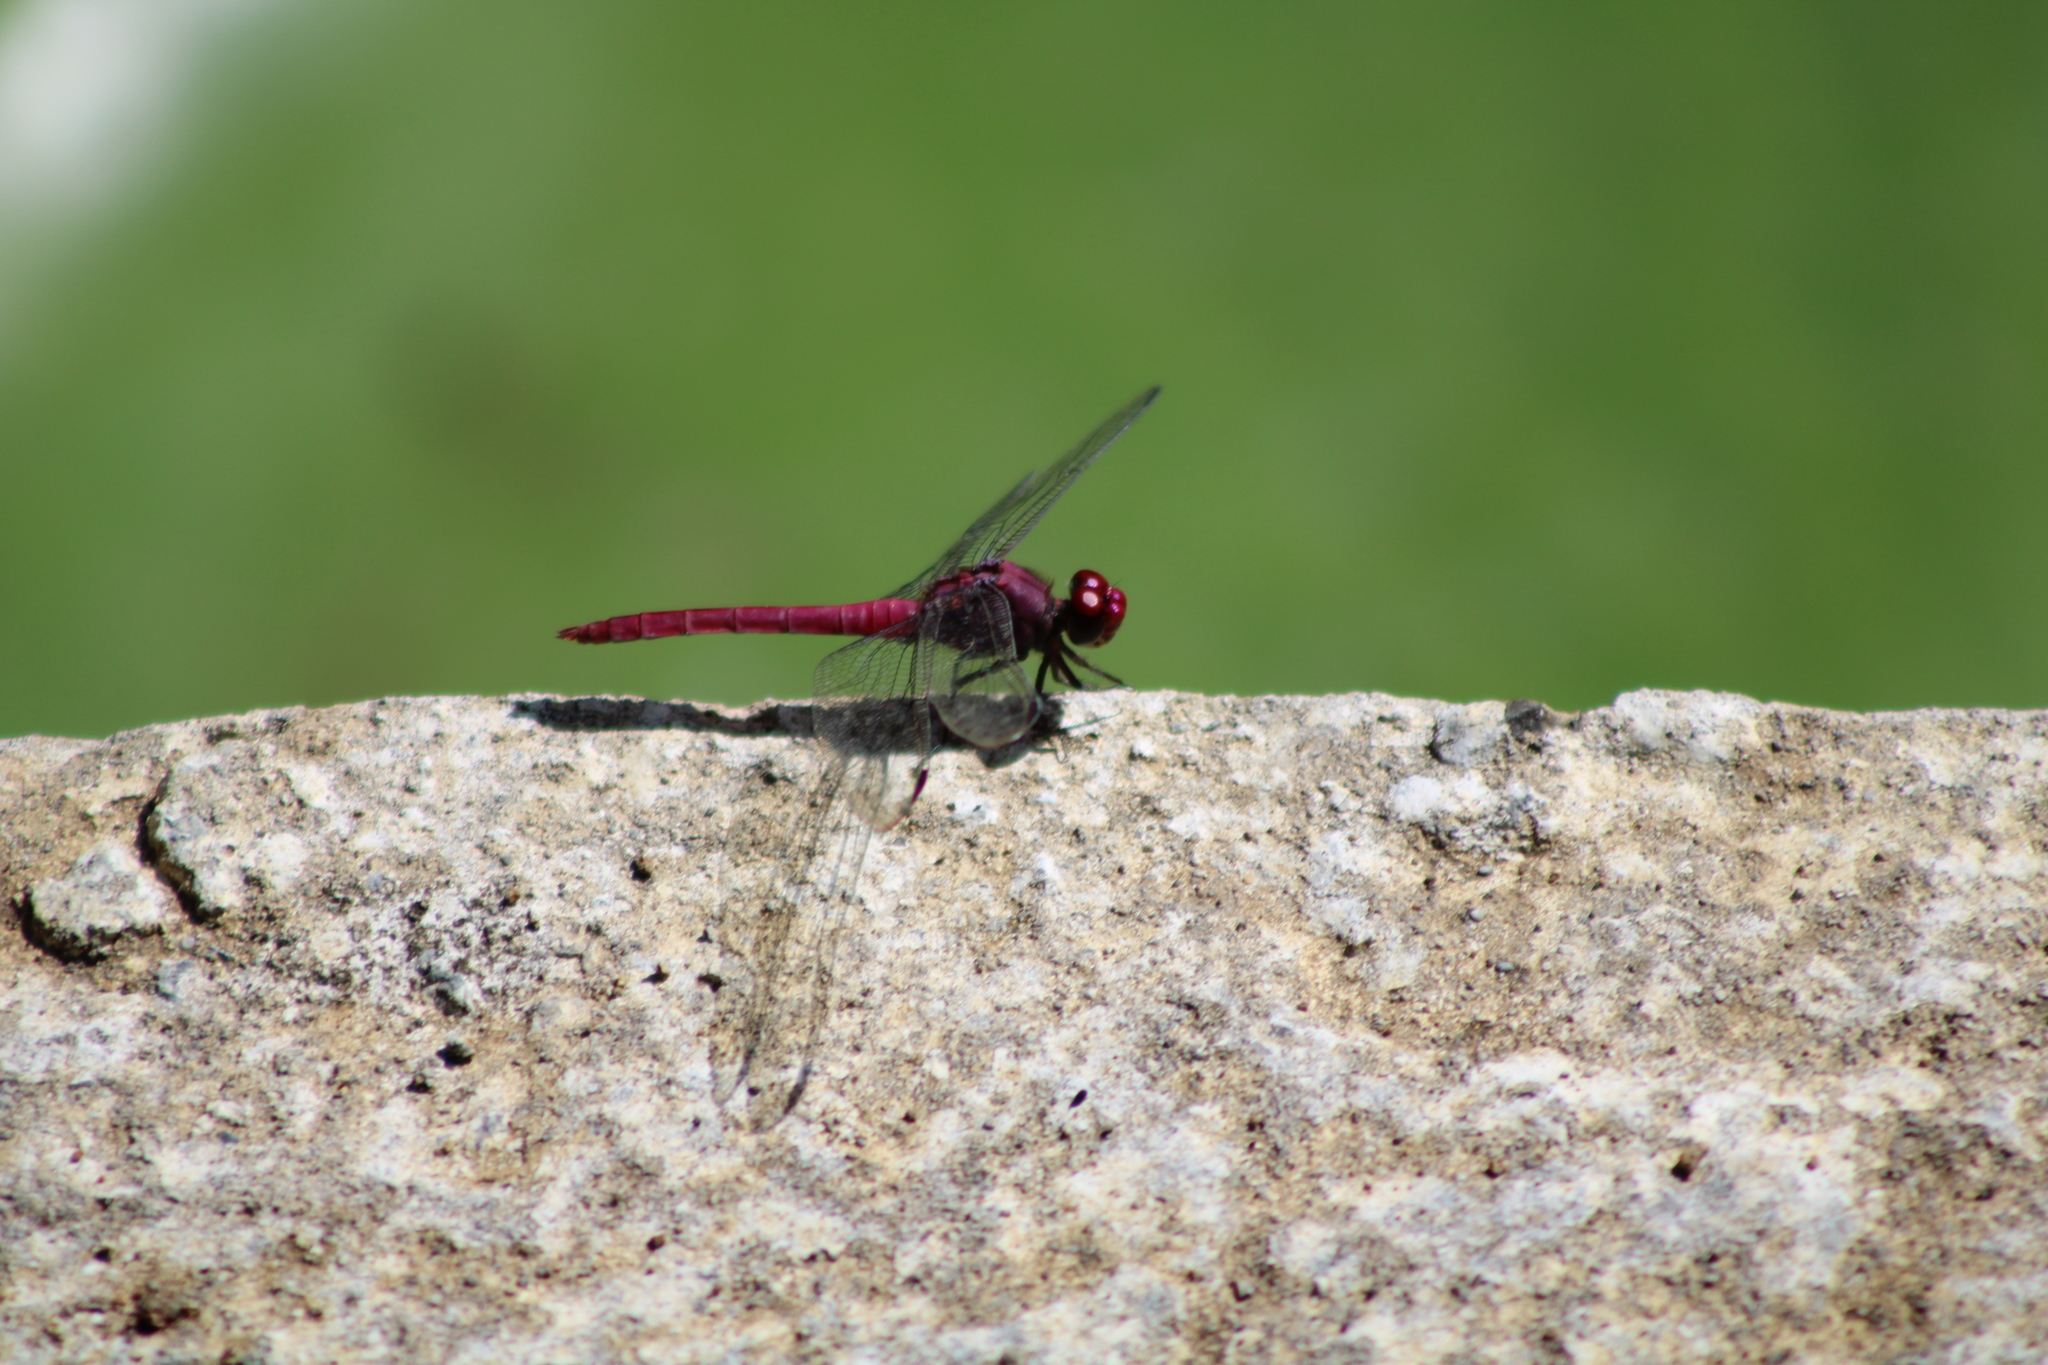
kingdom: Animalia
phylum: Arthropoda
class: Insecta
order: Odonata
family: Libellulidae
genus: Orthemis
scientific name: Orthemis macrostigma
